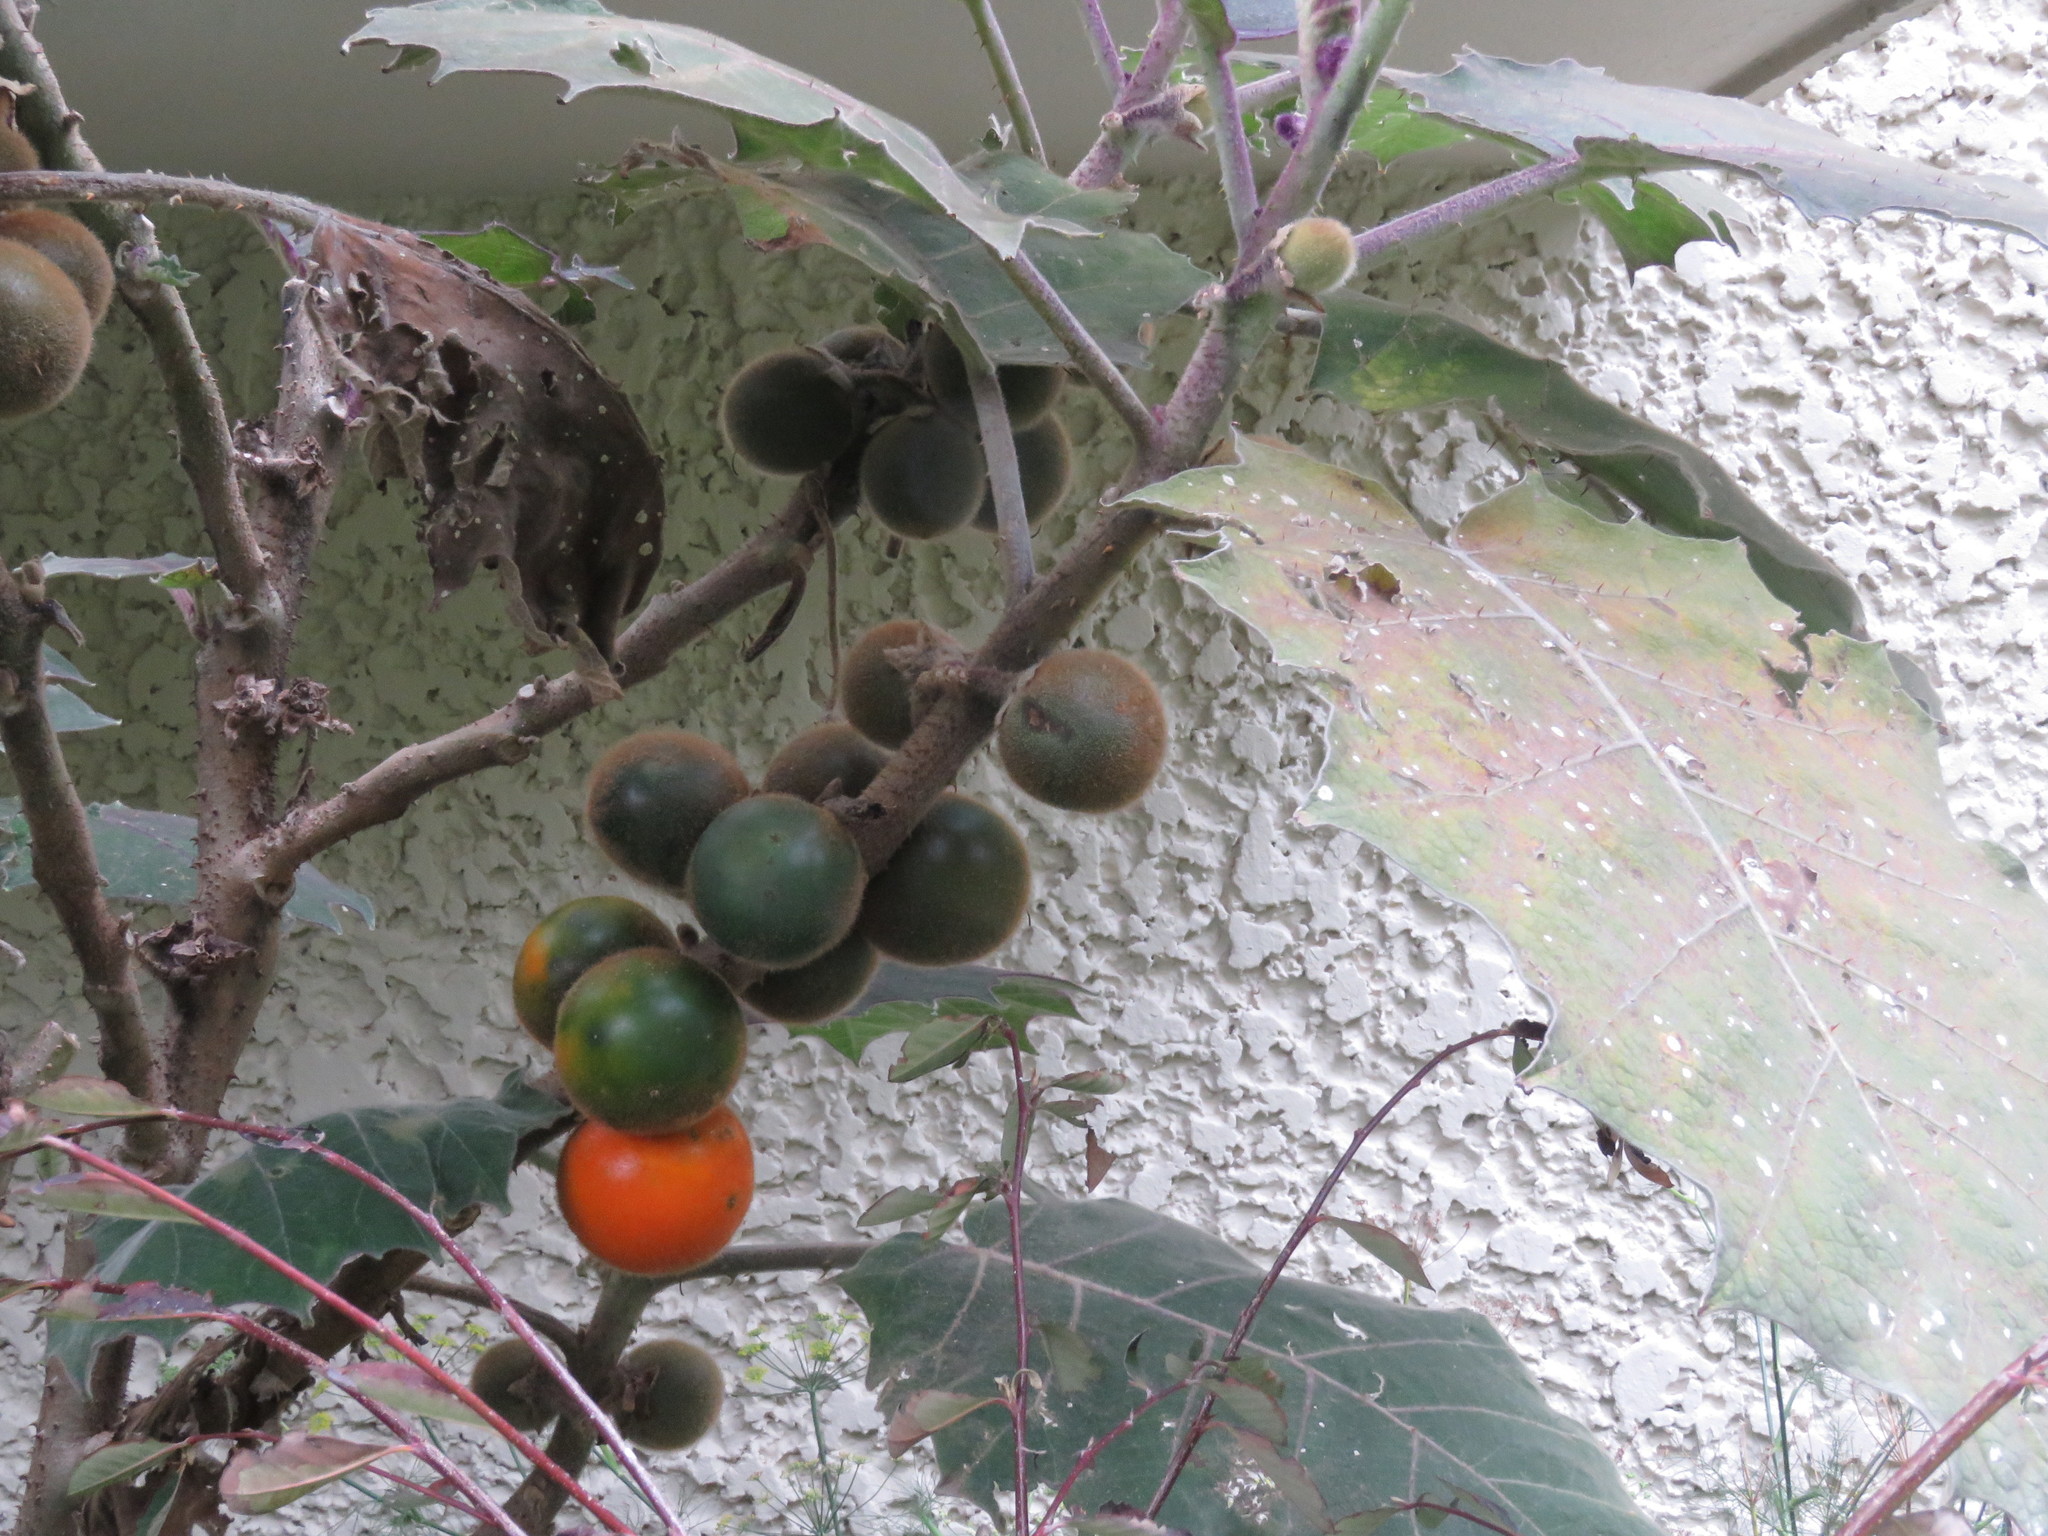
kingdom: Plantae
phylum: Tracheophyta
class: Magnoliopsida
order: Solanales
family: Solanaceae
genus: Solanum
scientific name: Solanum quitoense
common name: Quito-orange
